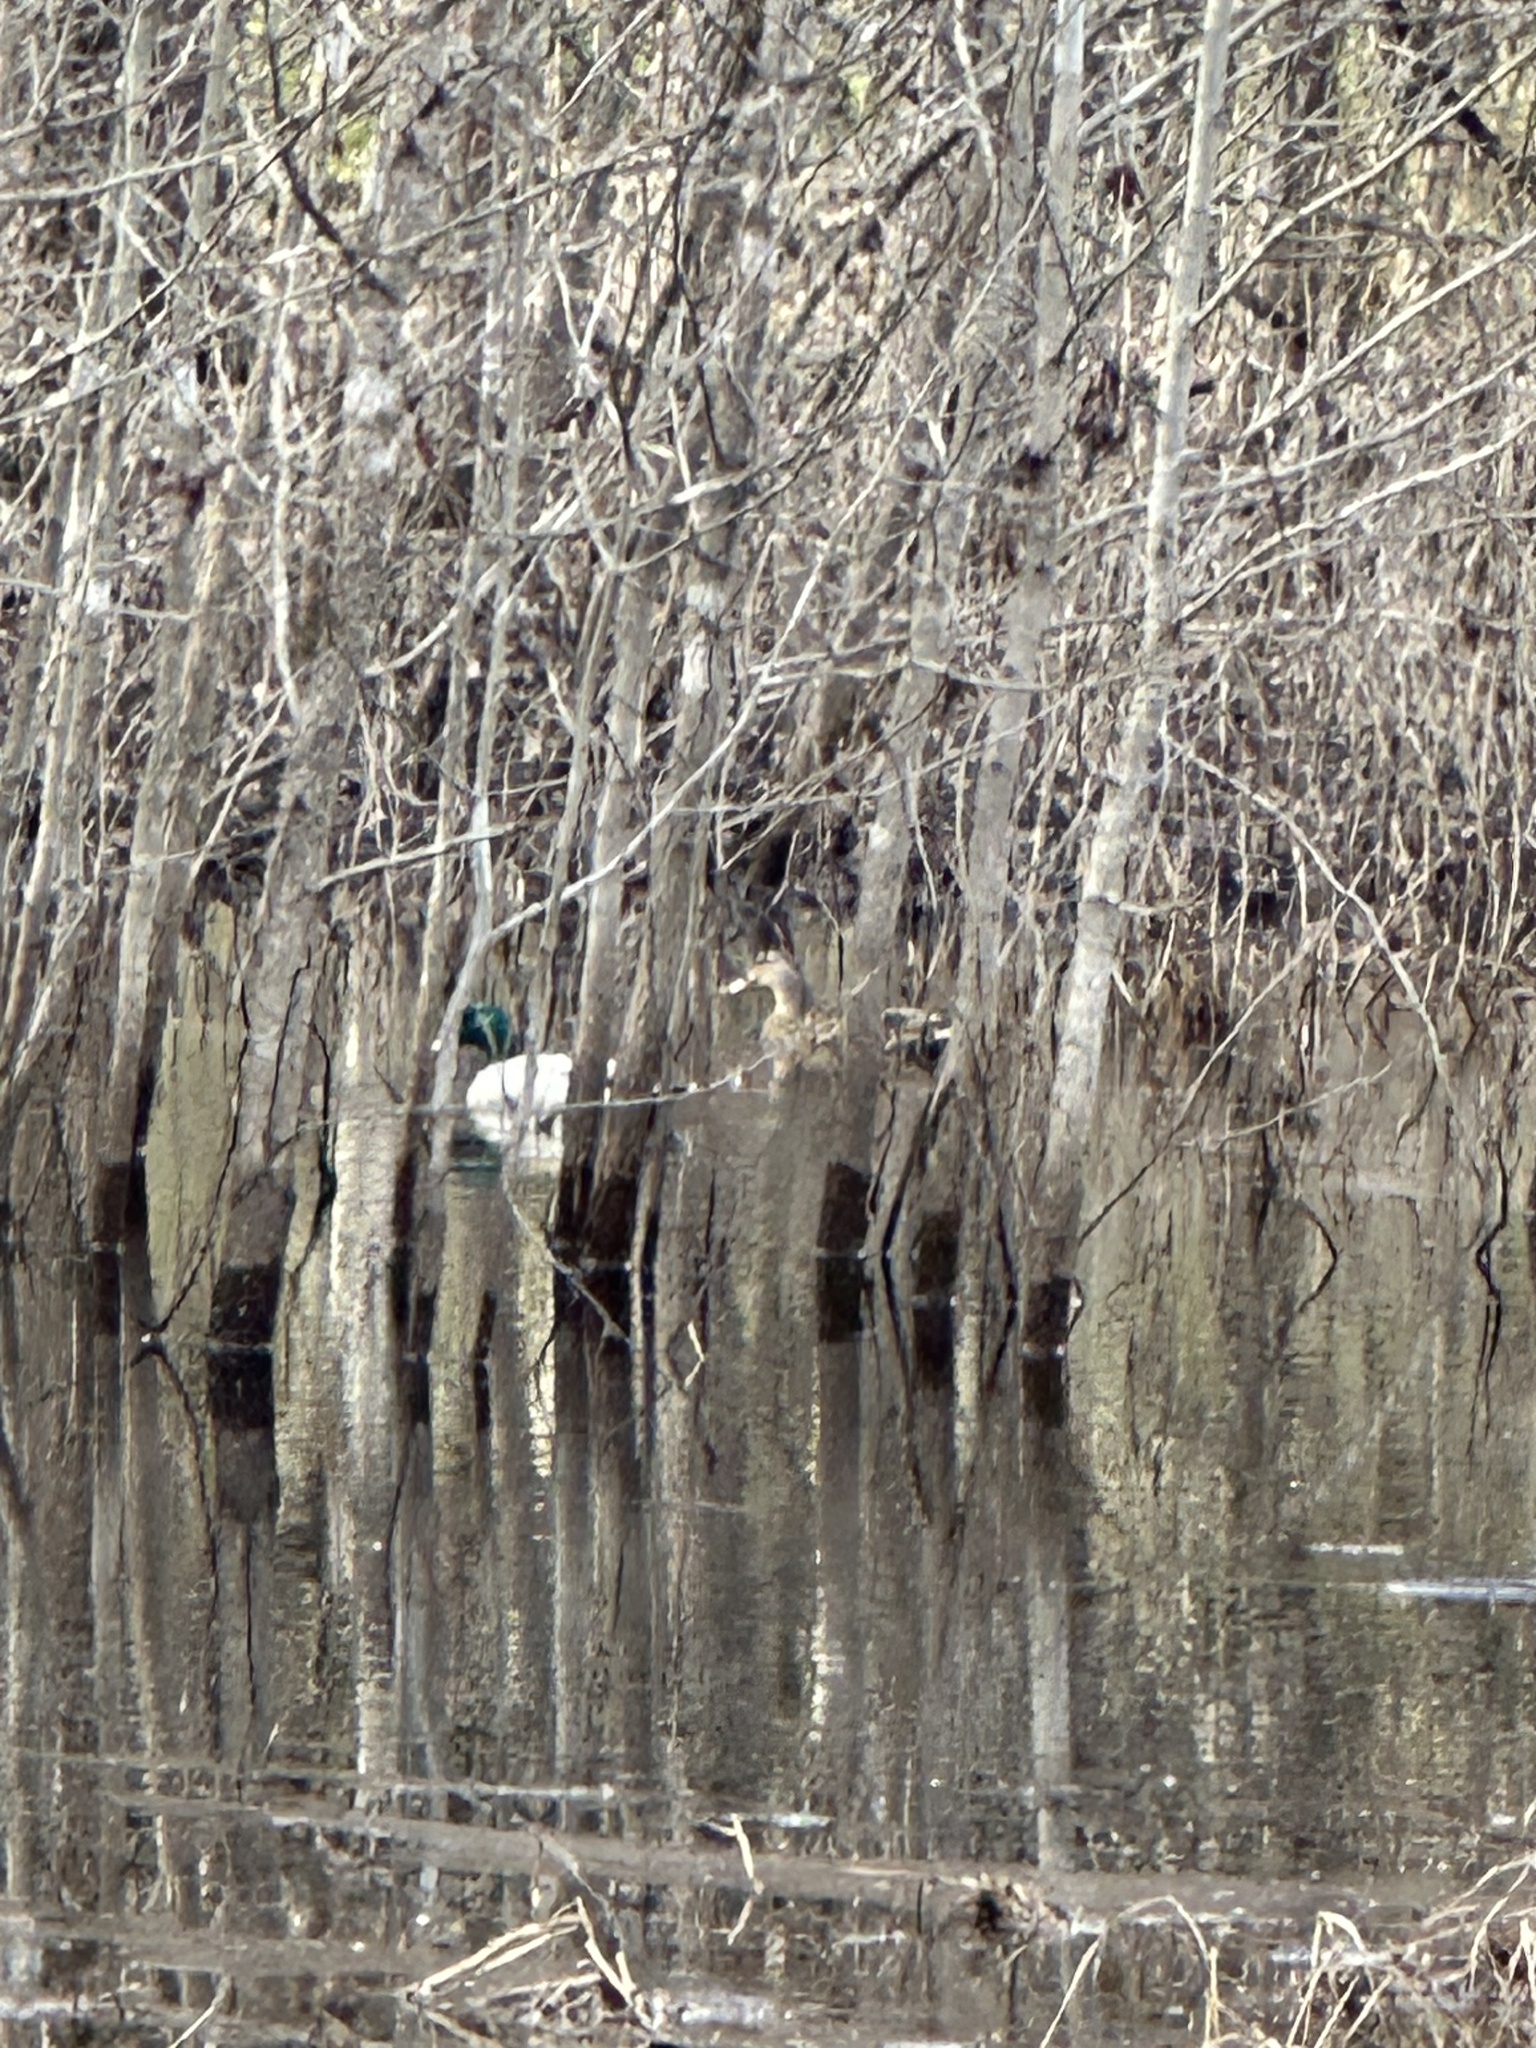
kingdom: Animalia
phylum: Chordata
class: Aves
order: Anseriformes
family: Anatidae
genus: Anas
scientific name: Anas platyrhynchos
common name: Mallard
